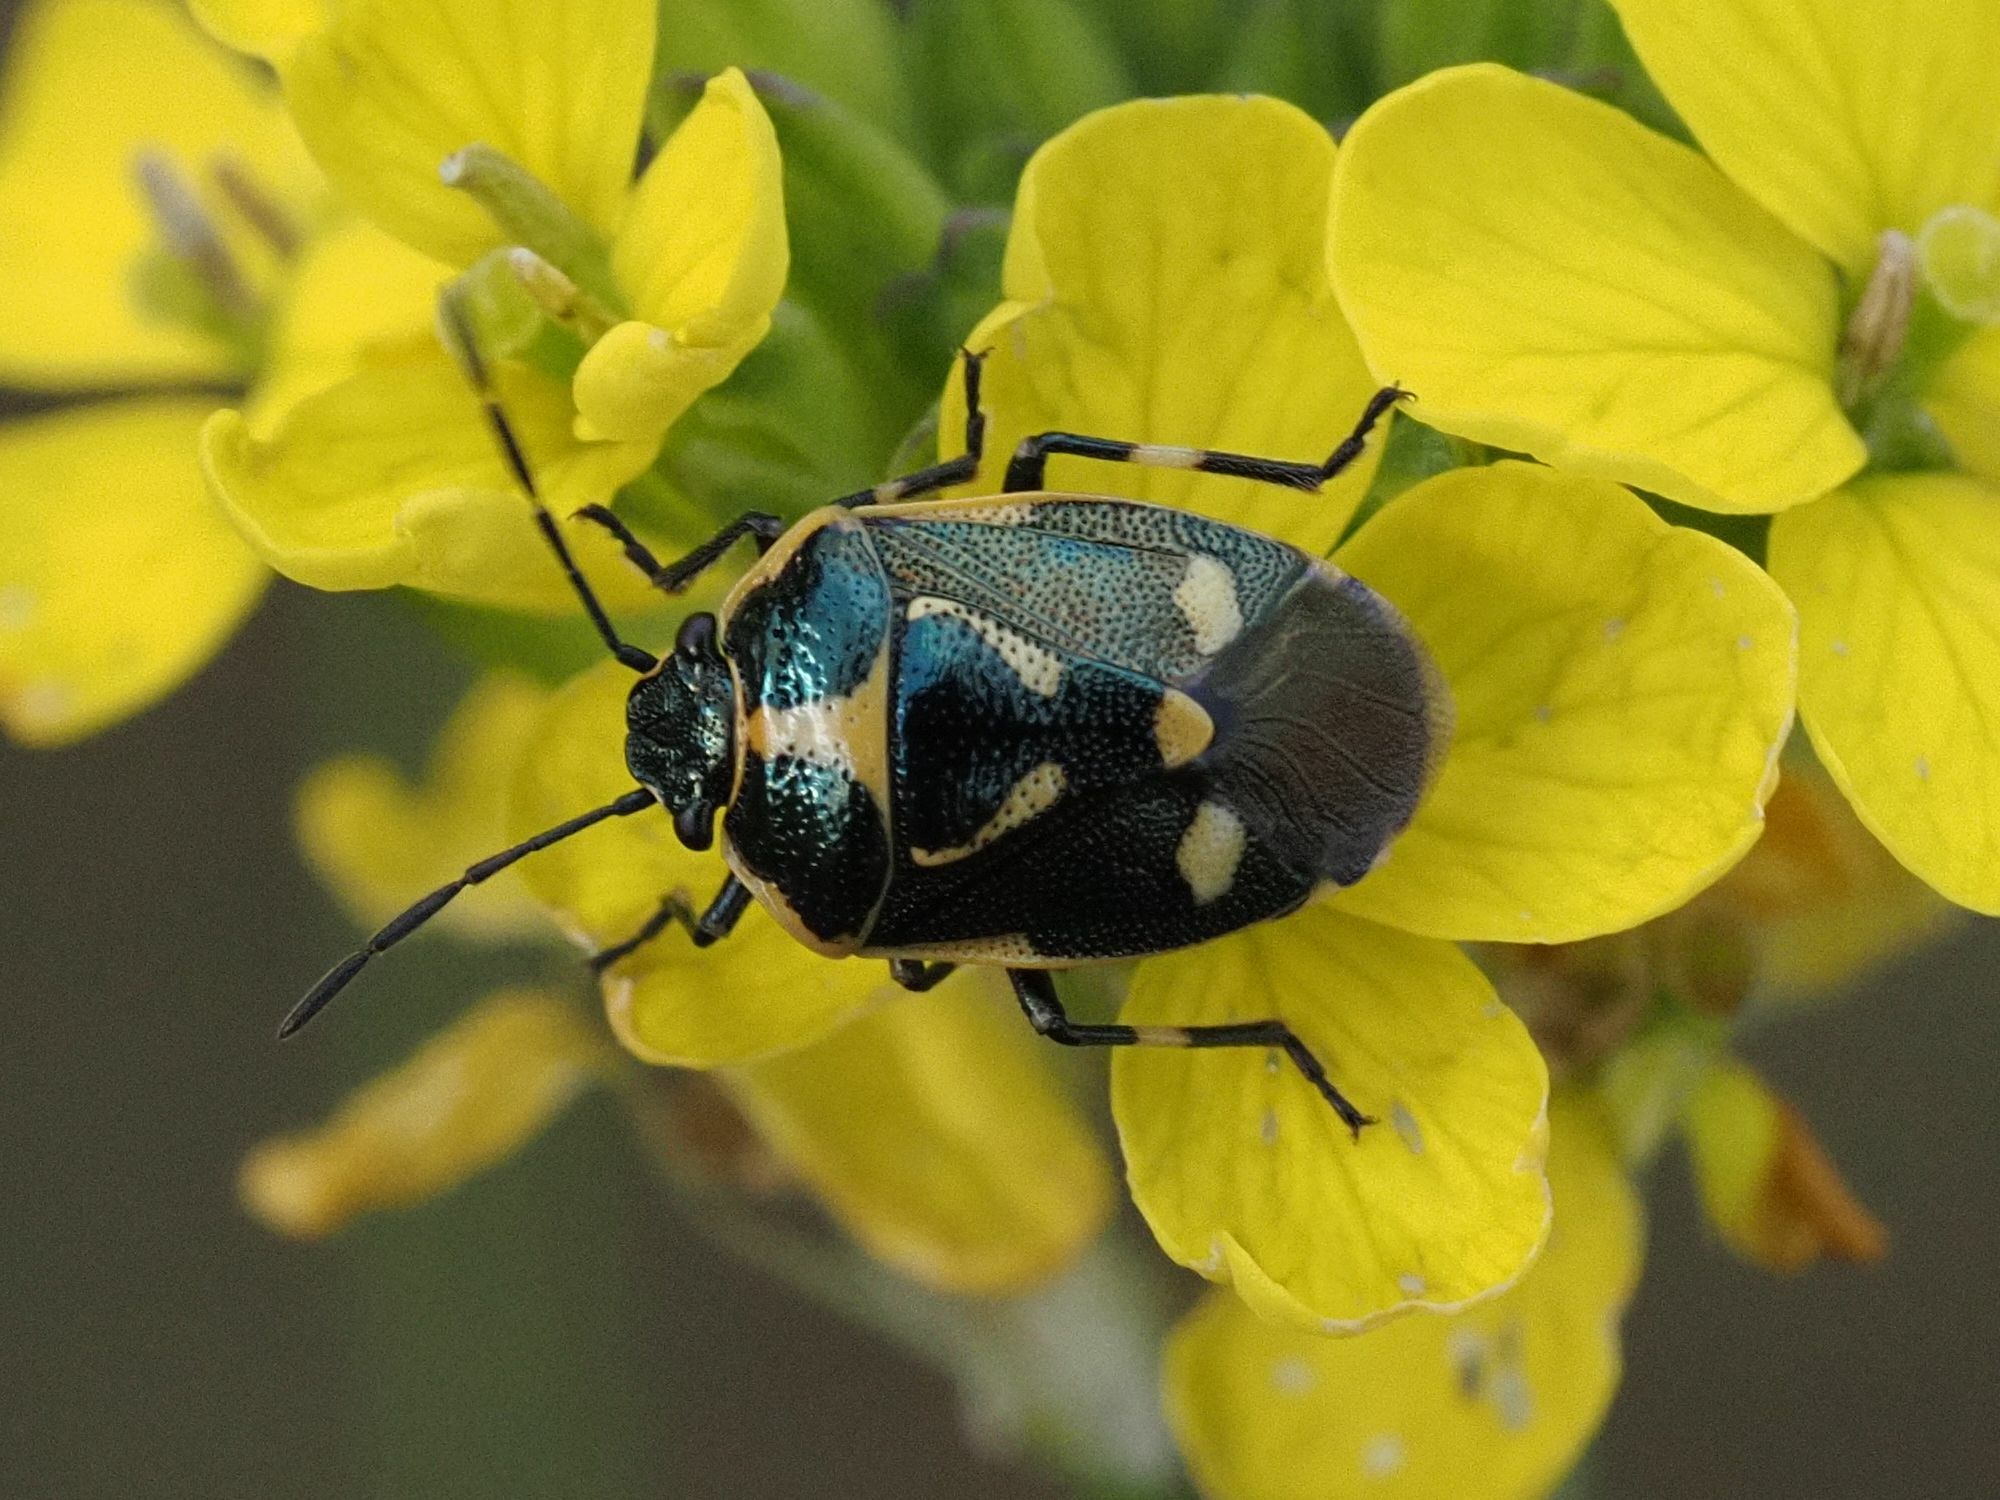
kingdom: Animalia
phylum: Arthropoda
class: Insecta
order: Hemiptera
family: Pentatomidae
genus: Eurydema
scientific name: Eurydema oleracea
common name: Cabbage bug
